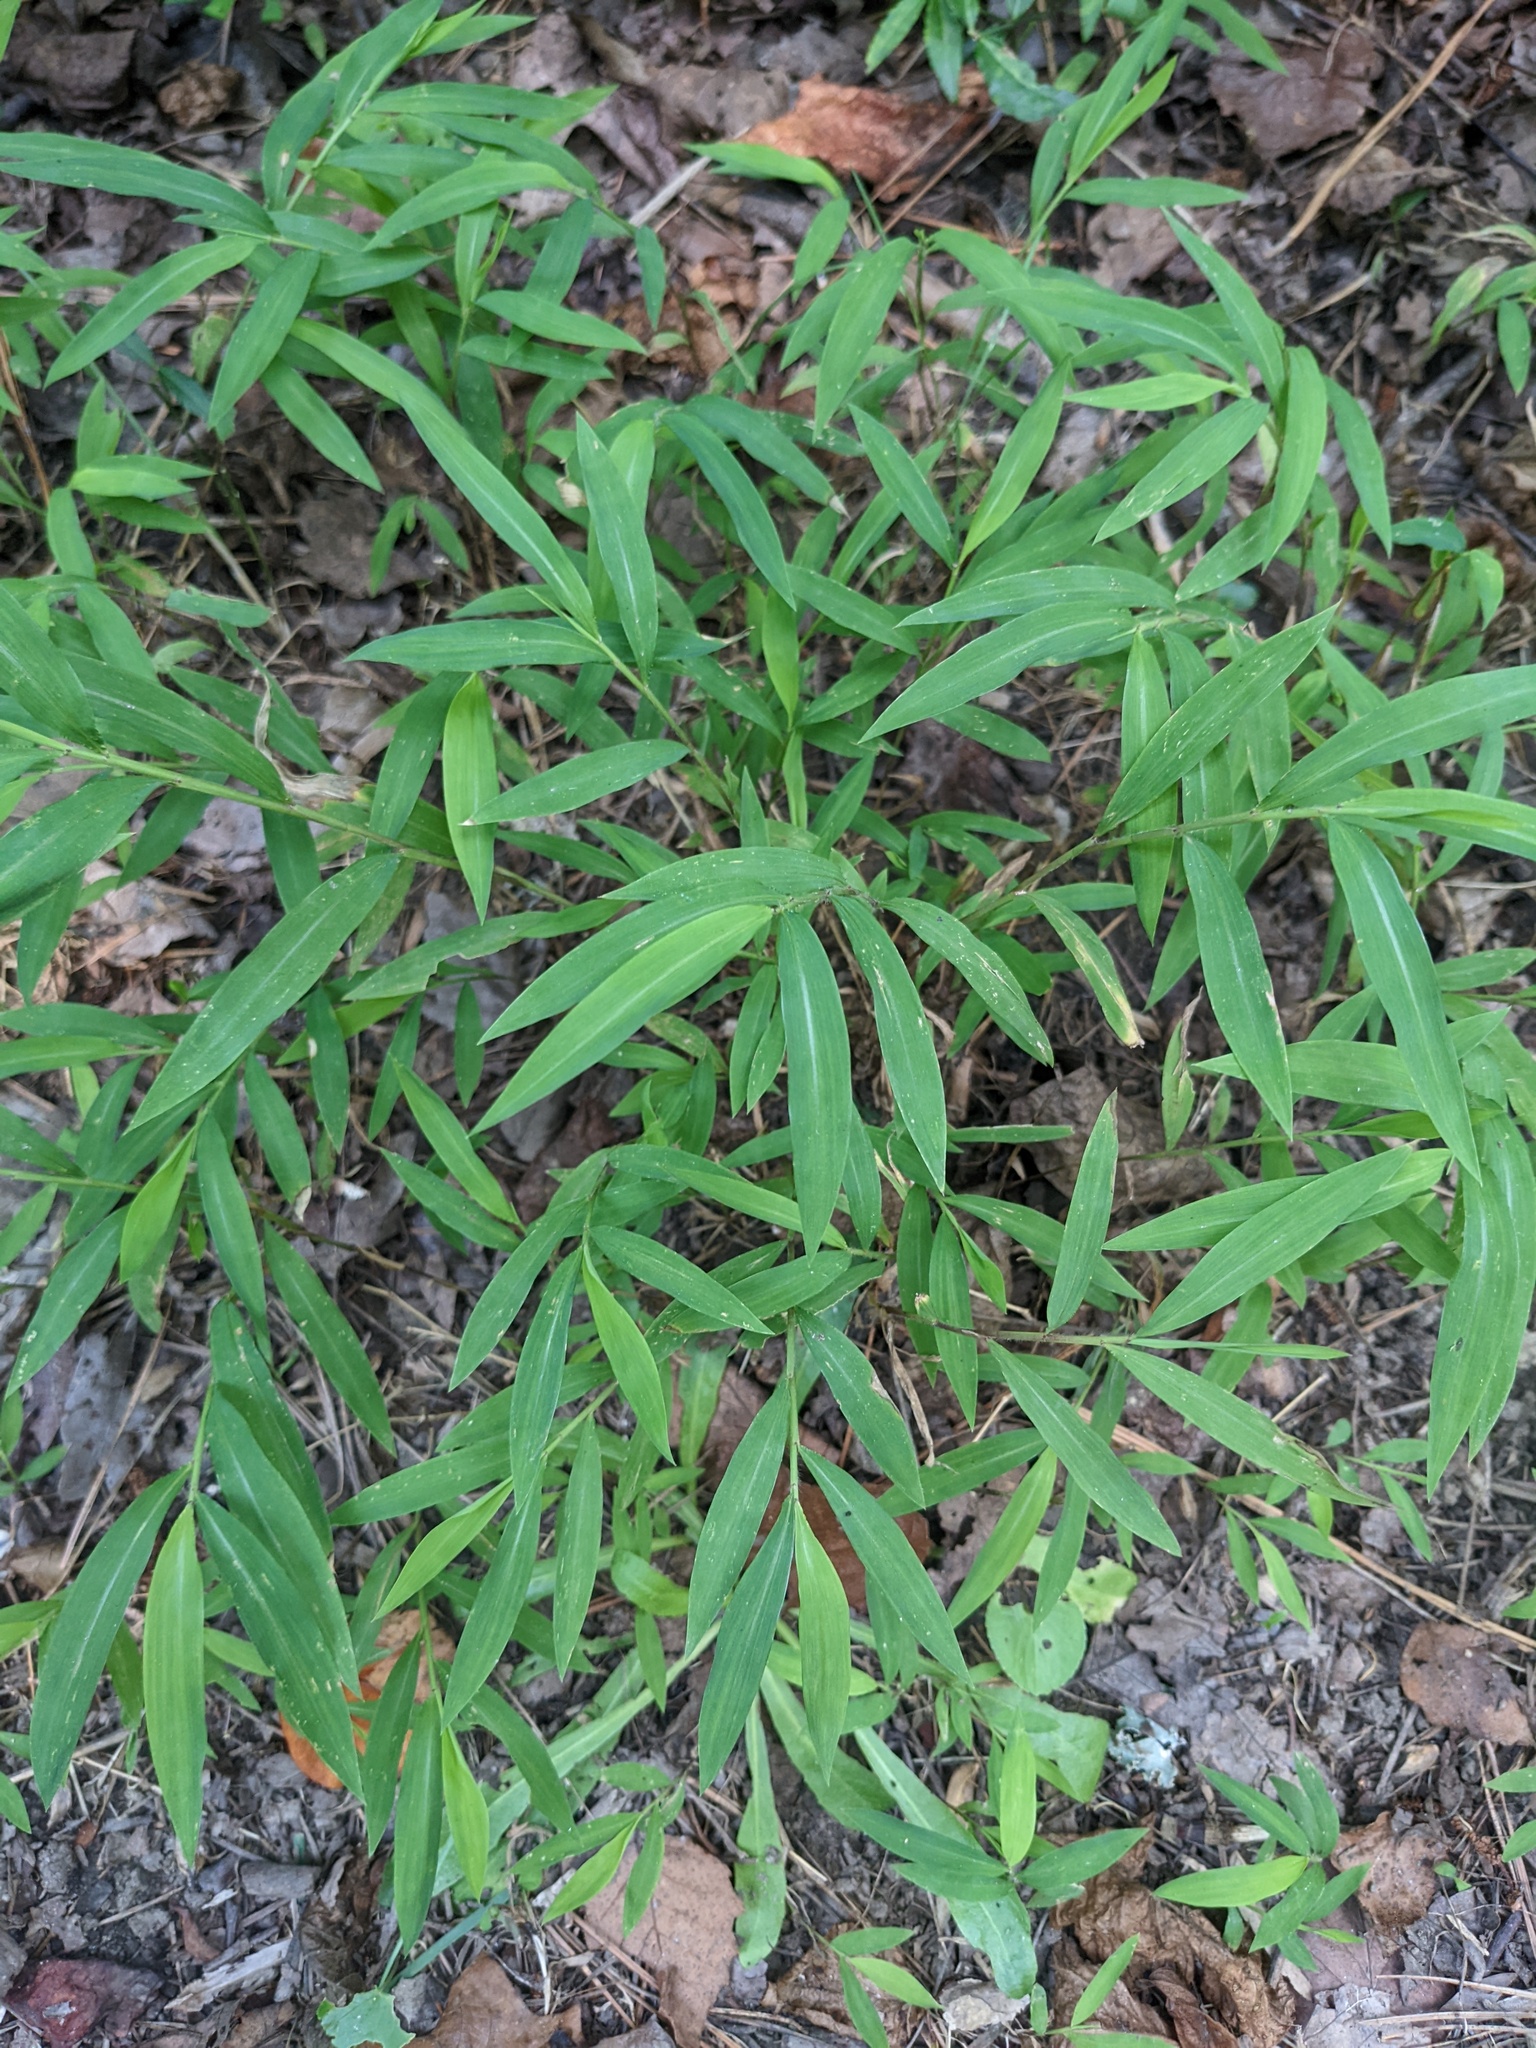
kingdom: Plantae
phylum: Tracheophyta
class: Liliopsida
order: Poales
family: Poaceae
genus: Microstegium
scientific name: Microstegium vimineum
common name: Japanese stiltgrass
